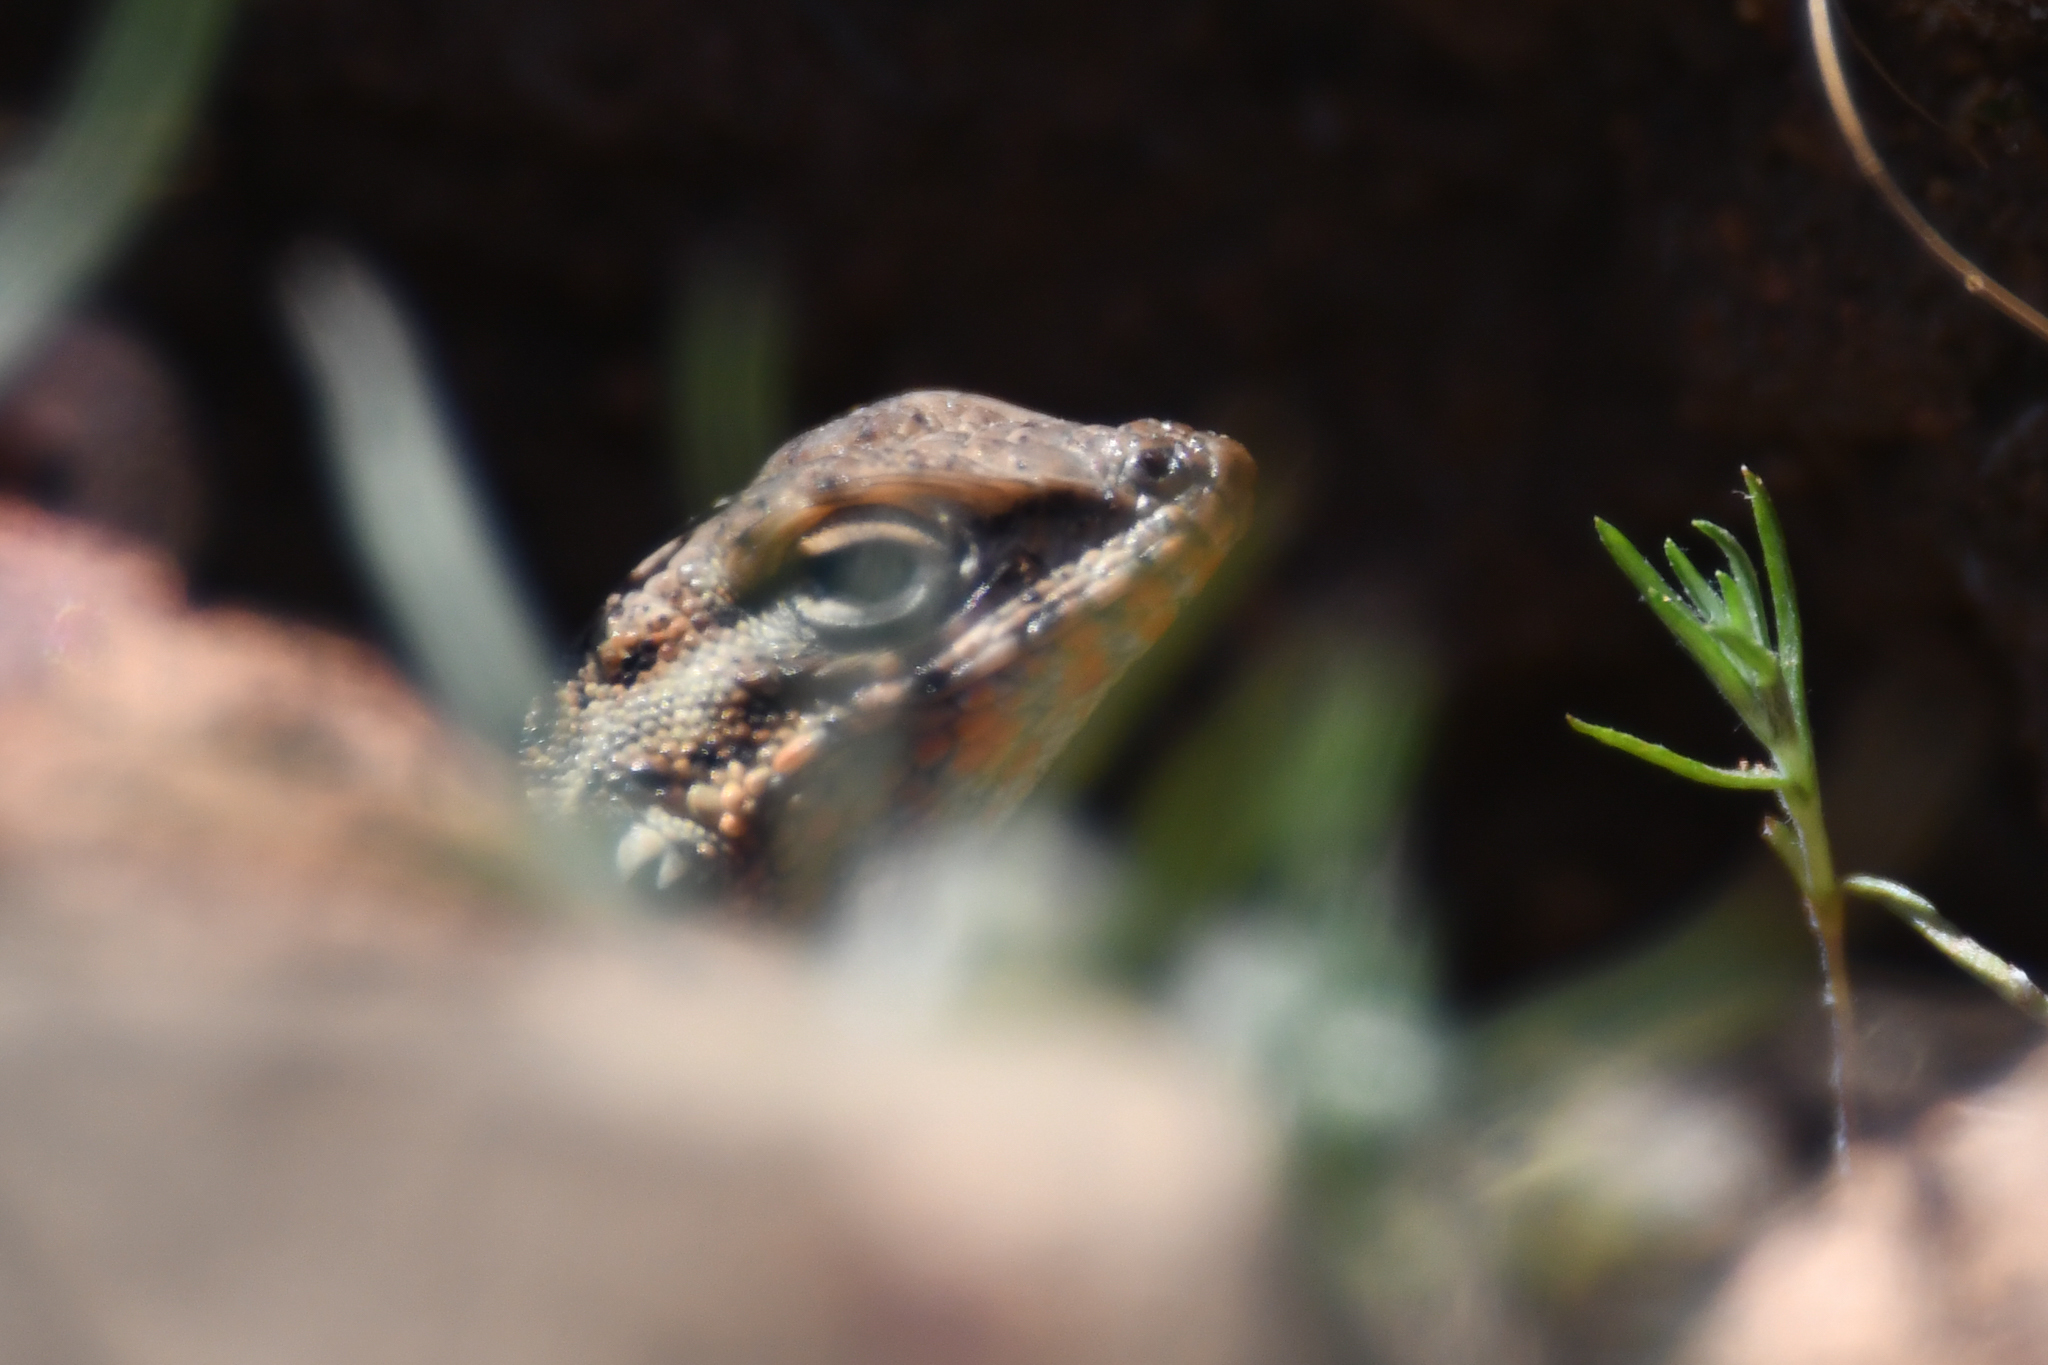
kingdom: Animalia
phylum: Chordata
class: Squamata
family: Phrynosomatidae
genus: Uta
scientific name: Uta stansburiana
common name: Side-blotched lizard
